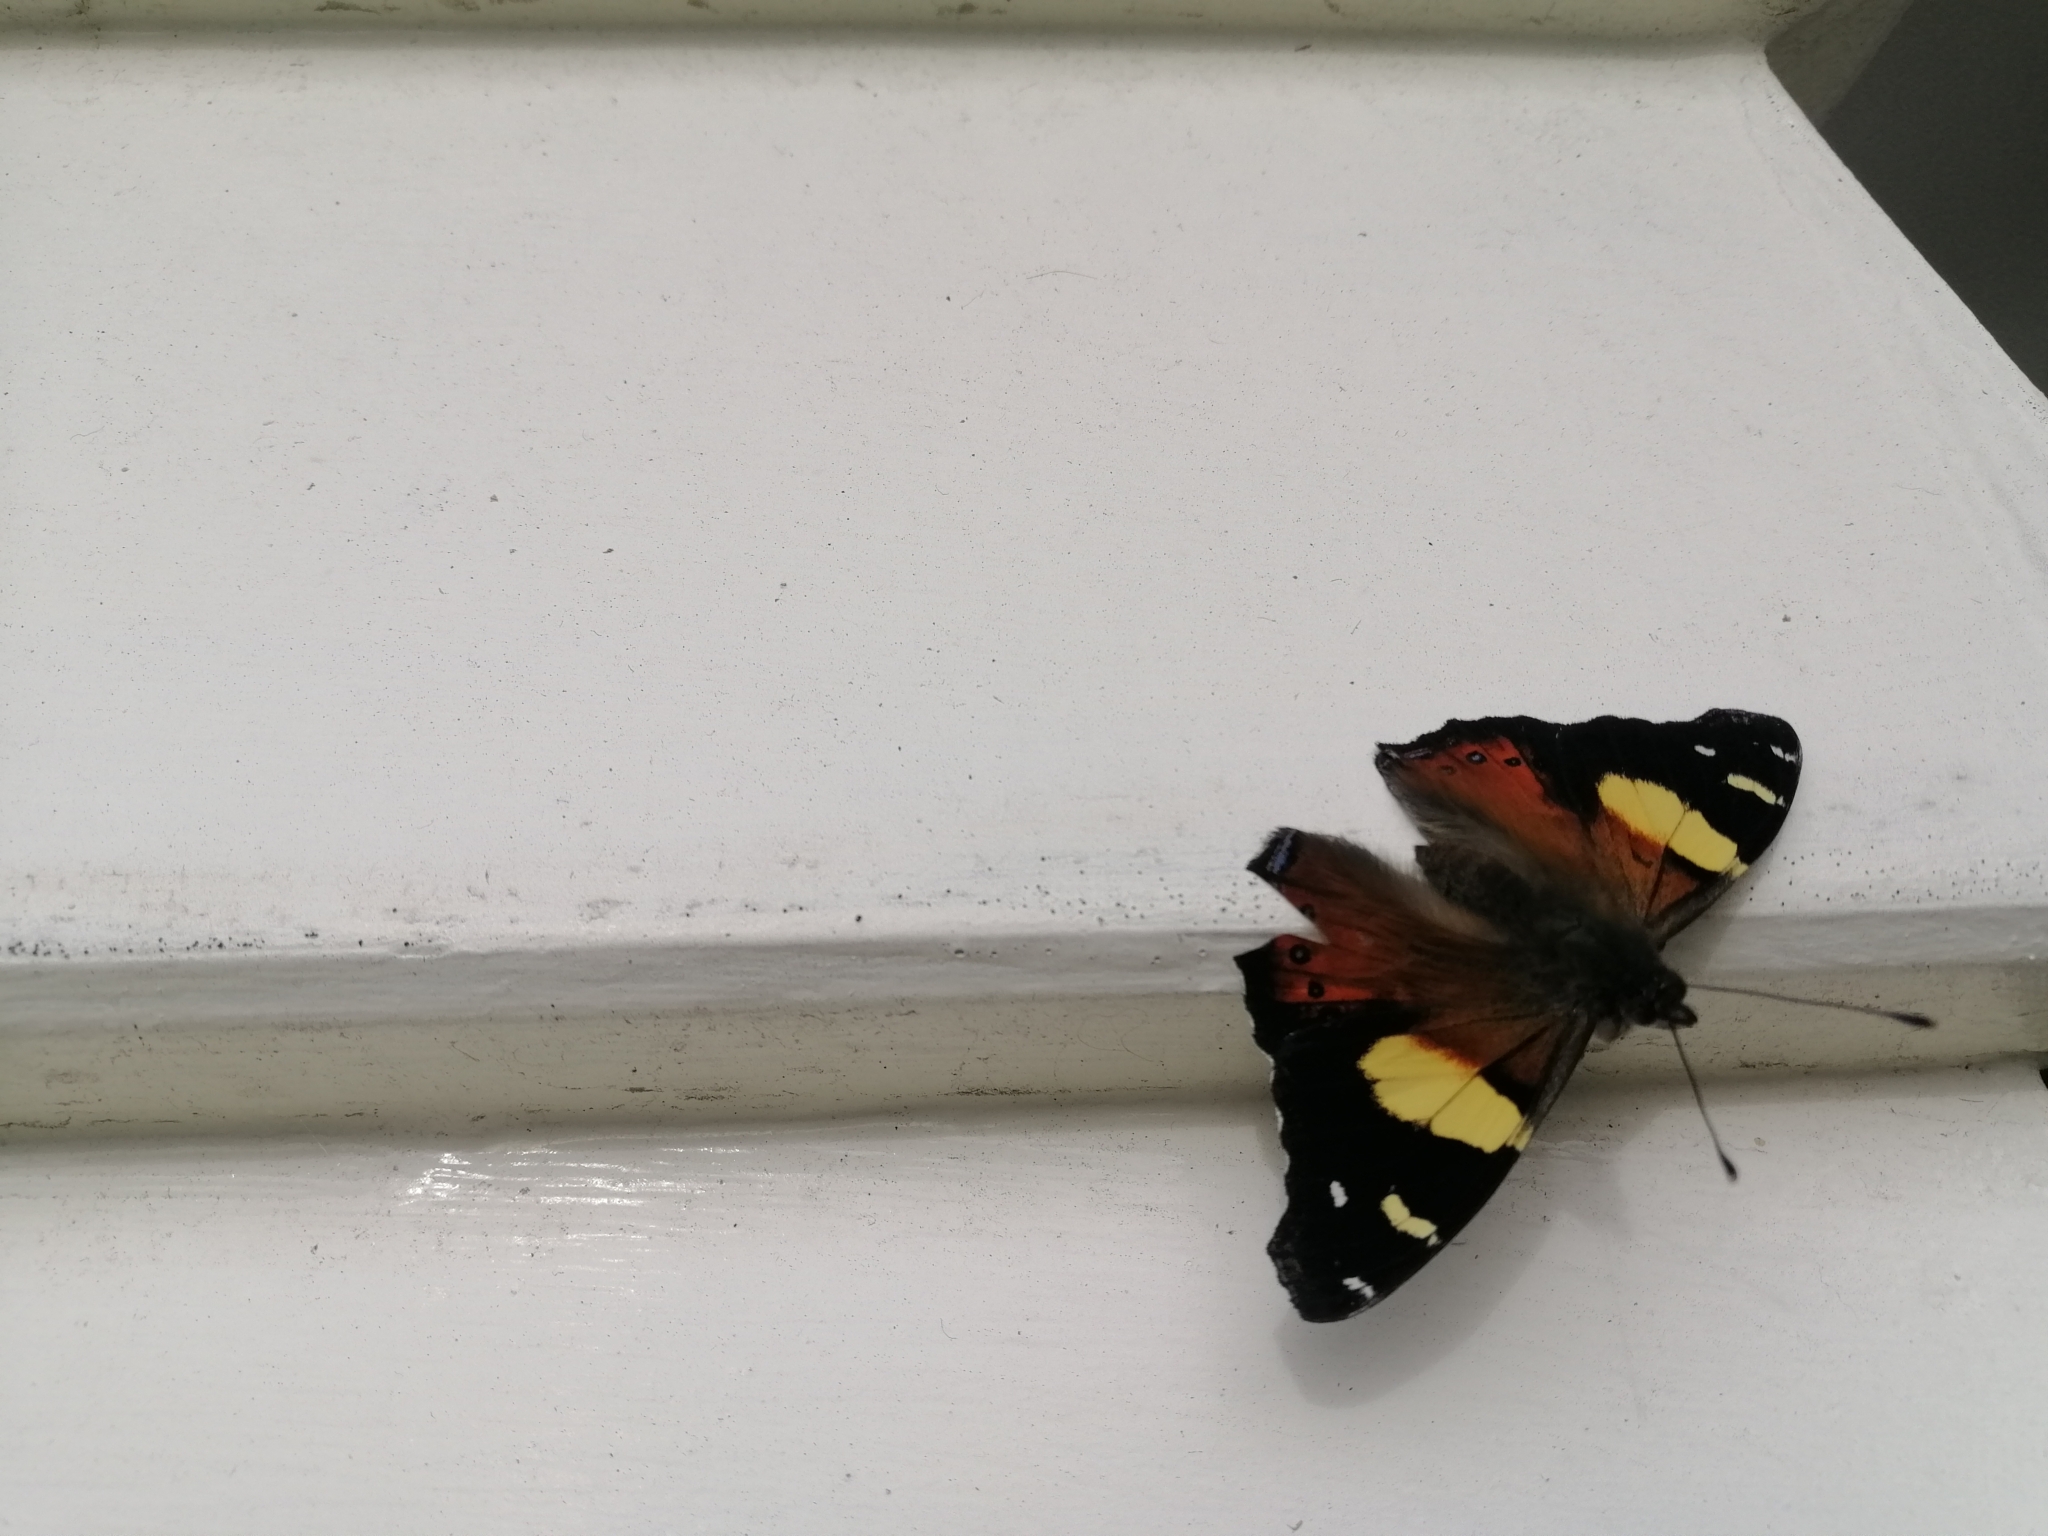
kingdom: Animalia
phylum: Arthropoda
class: Insecta
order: Lepidoptera
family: Nymphalidae
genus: Vanessa
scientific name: Vanessa itea
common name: Yellow admiral
